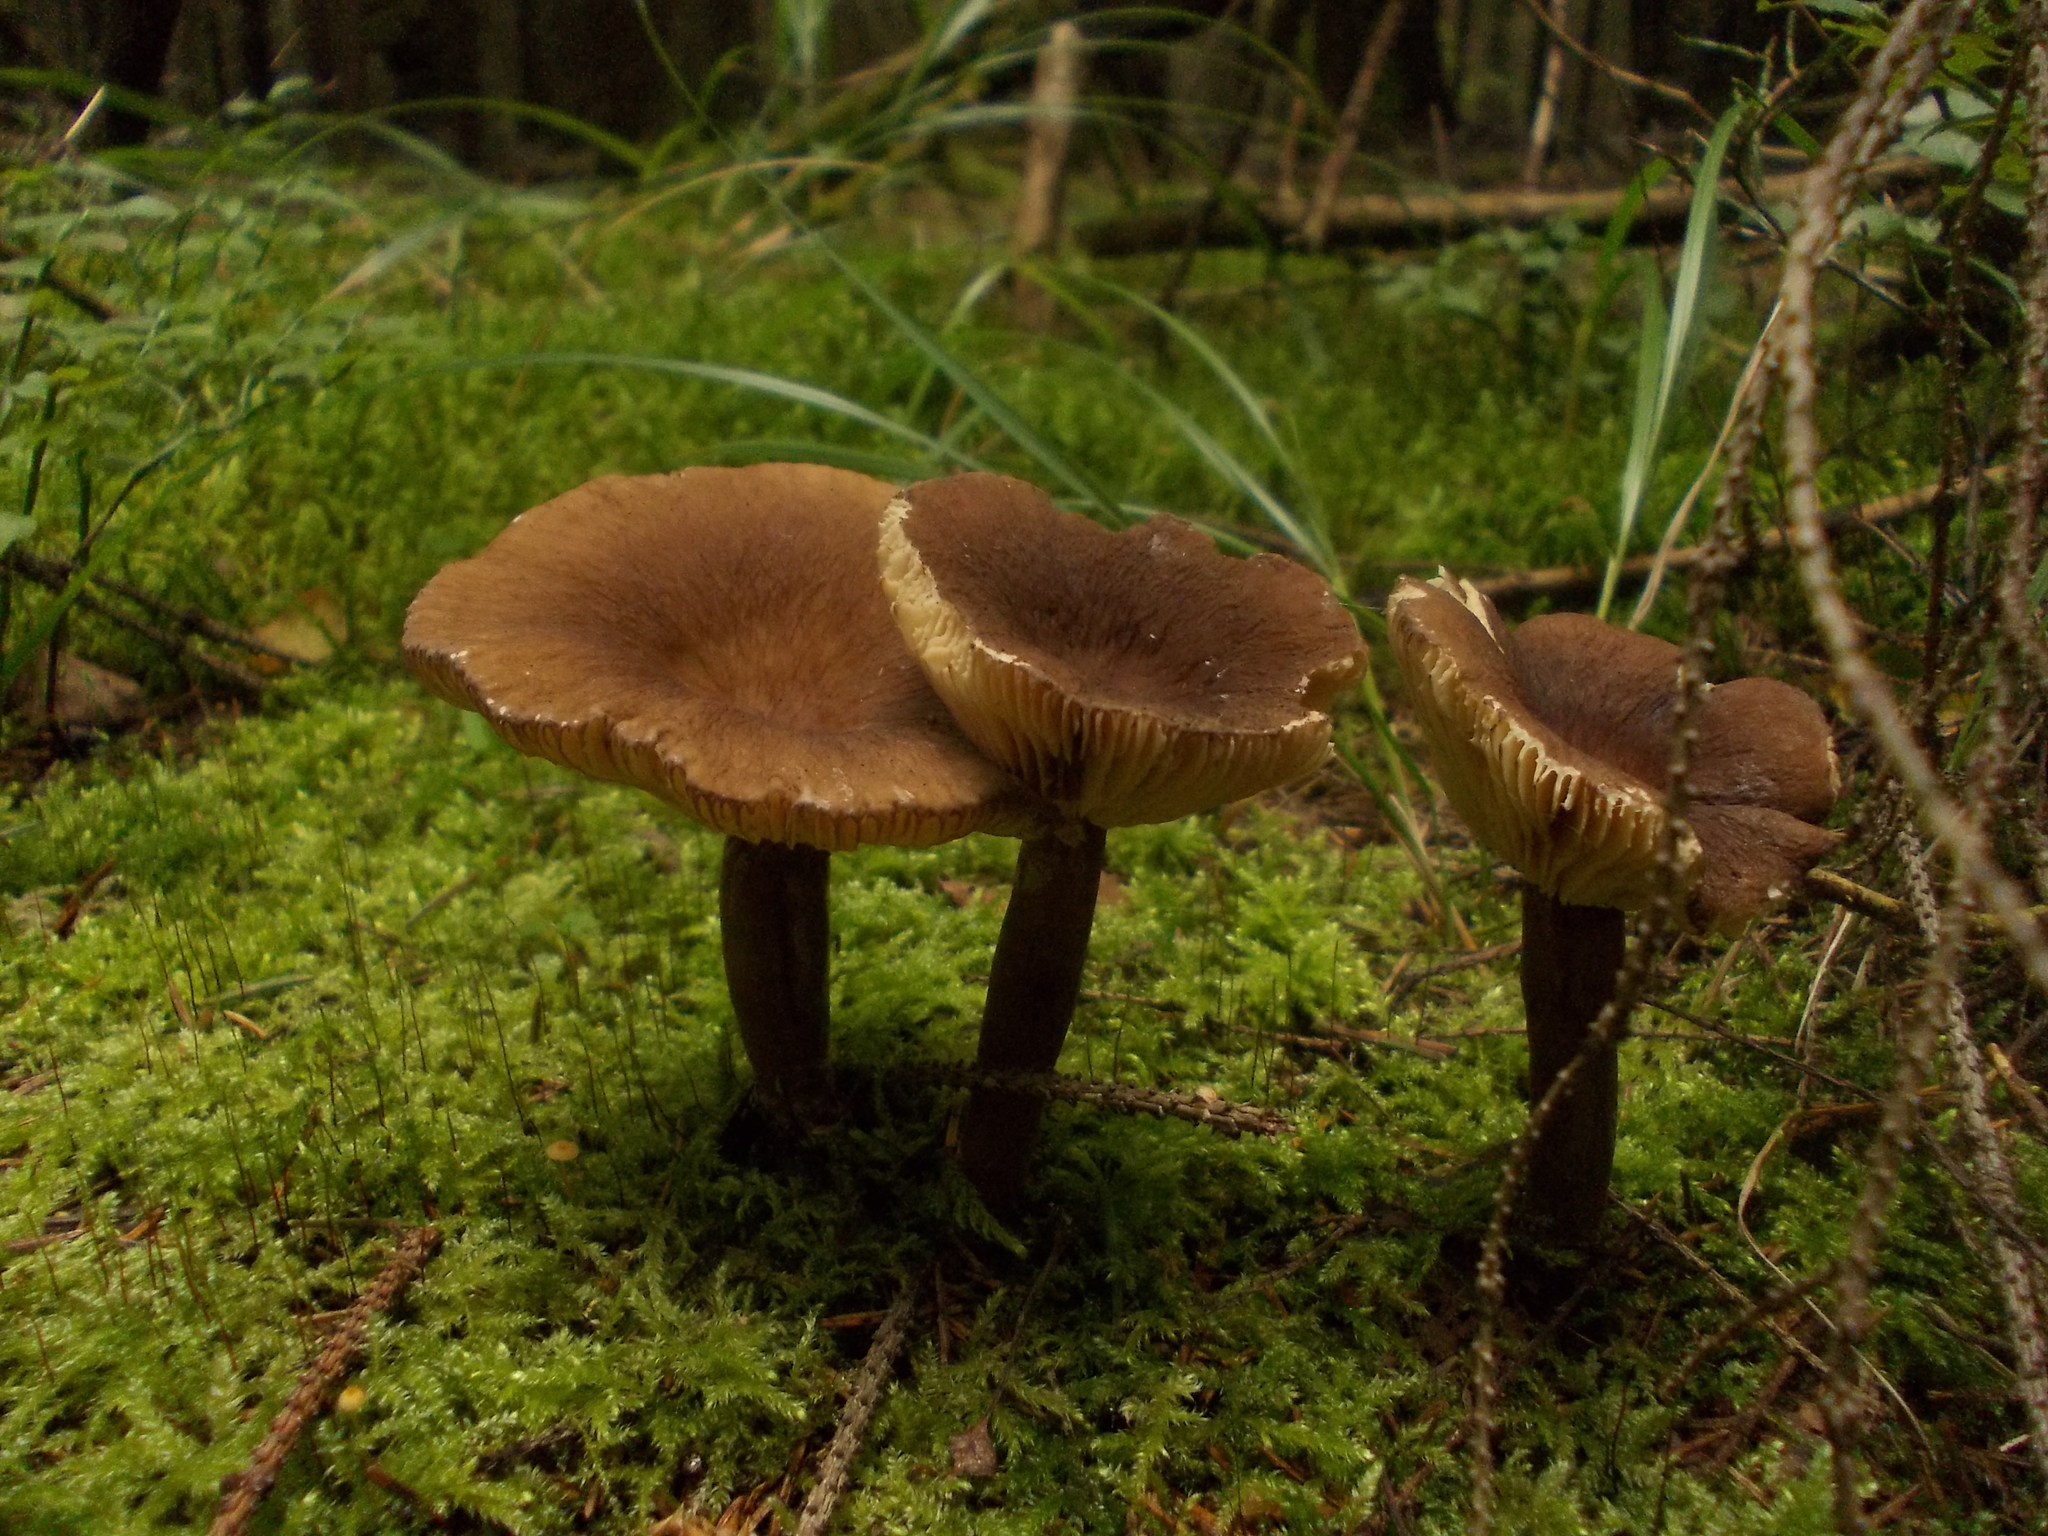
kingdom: Fungi
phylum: Basidiomycota
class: Agaricomycetes
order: Russulales
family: Russulaceae
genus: Lactarius
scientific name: Lactarius lignyotus
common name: Velvet milkcap
